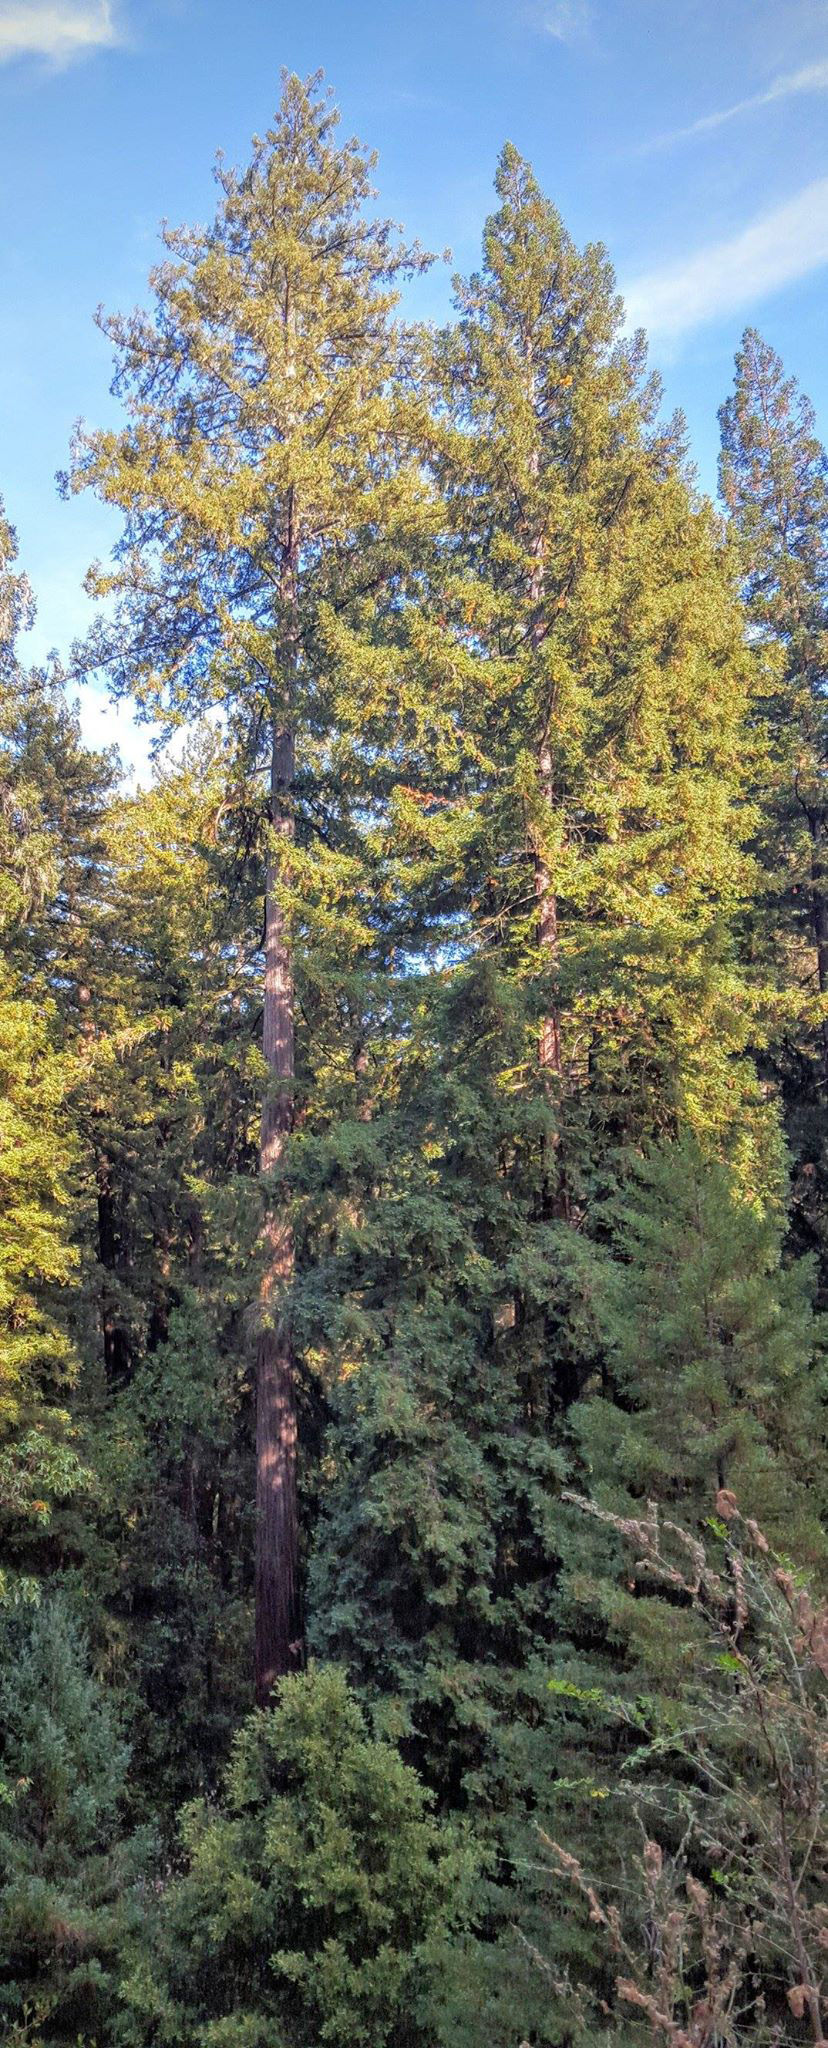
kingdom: Plantae
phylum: Tracheophyta
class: Pinopsida
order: Pinales
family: Cupressaceae
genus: Sequoia
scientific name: Sequoia sempervirens
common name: Coast redwood
